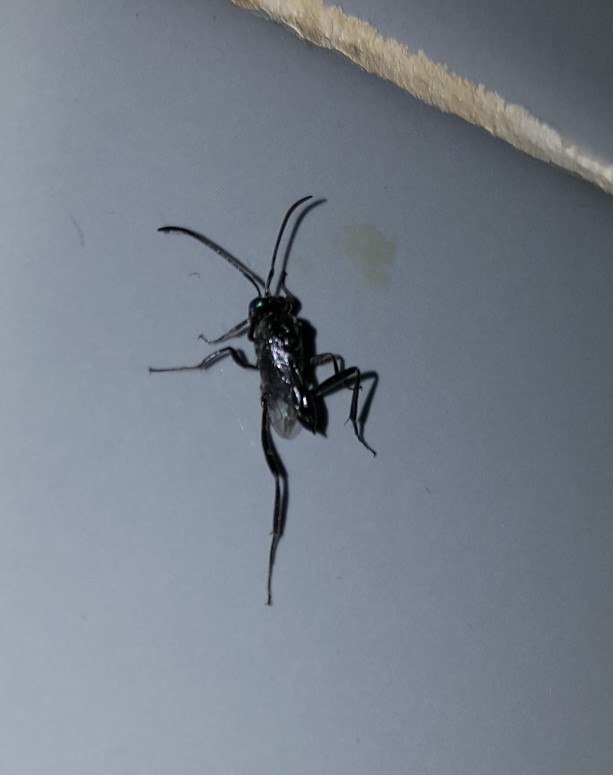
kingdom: Animalia
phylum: Arthropoda
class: Insecta
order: Hymenoptera
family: Evaniidae
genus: Evania
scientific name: Evania appendigaster
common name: Ensign wasp
